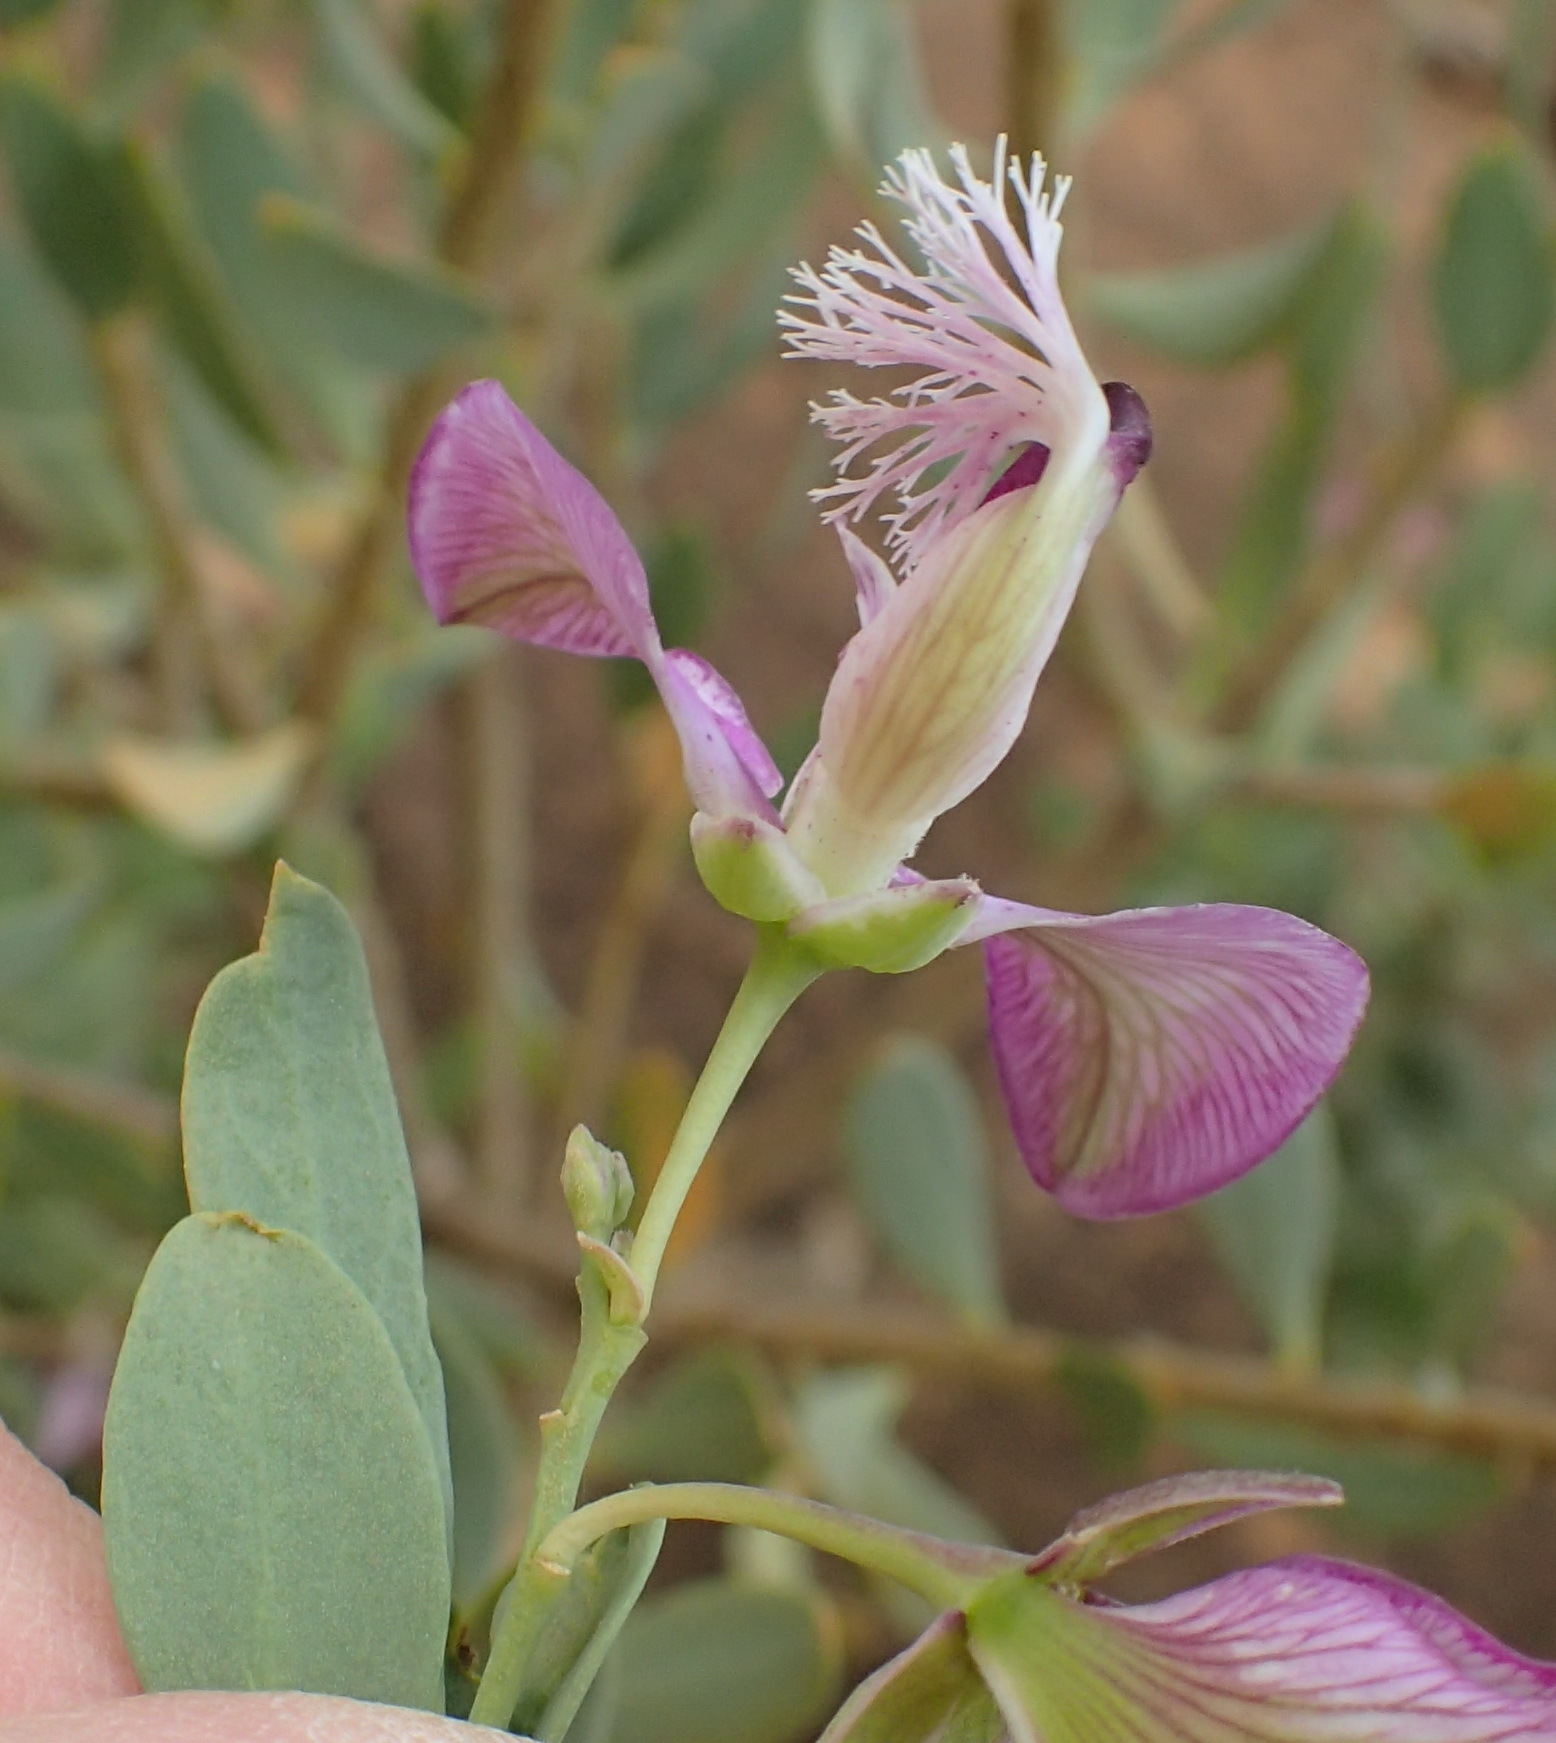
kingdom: Plantae
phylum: Tracheophyta
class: Magnoliopsida
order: Fabales
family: Polygalaceae
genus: Polygala
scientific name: Polygala myrtifolia
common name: Myrtle-leaf milkwort
